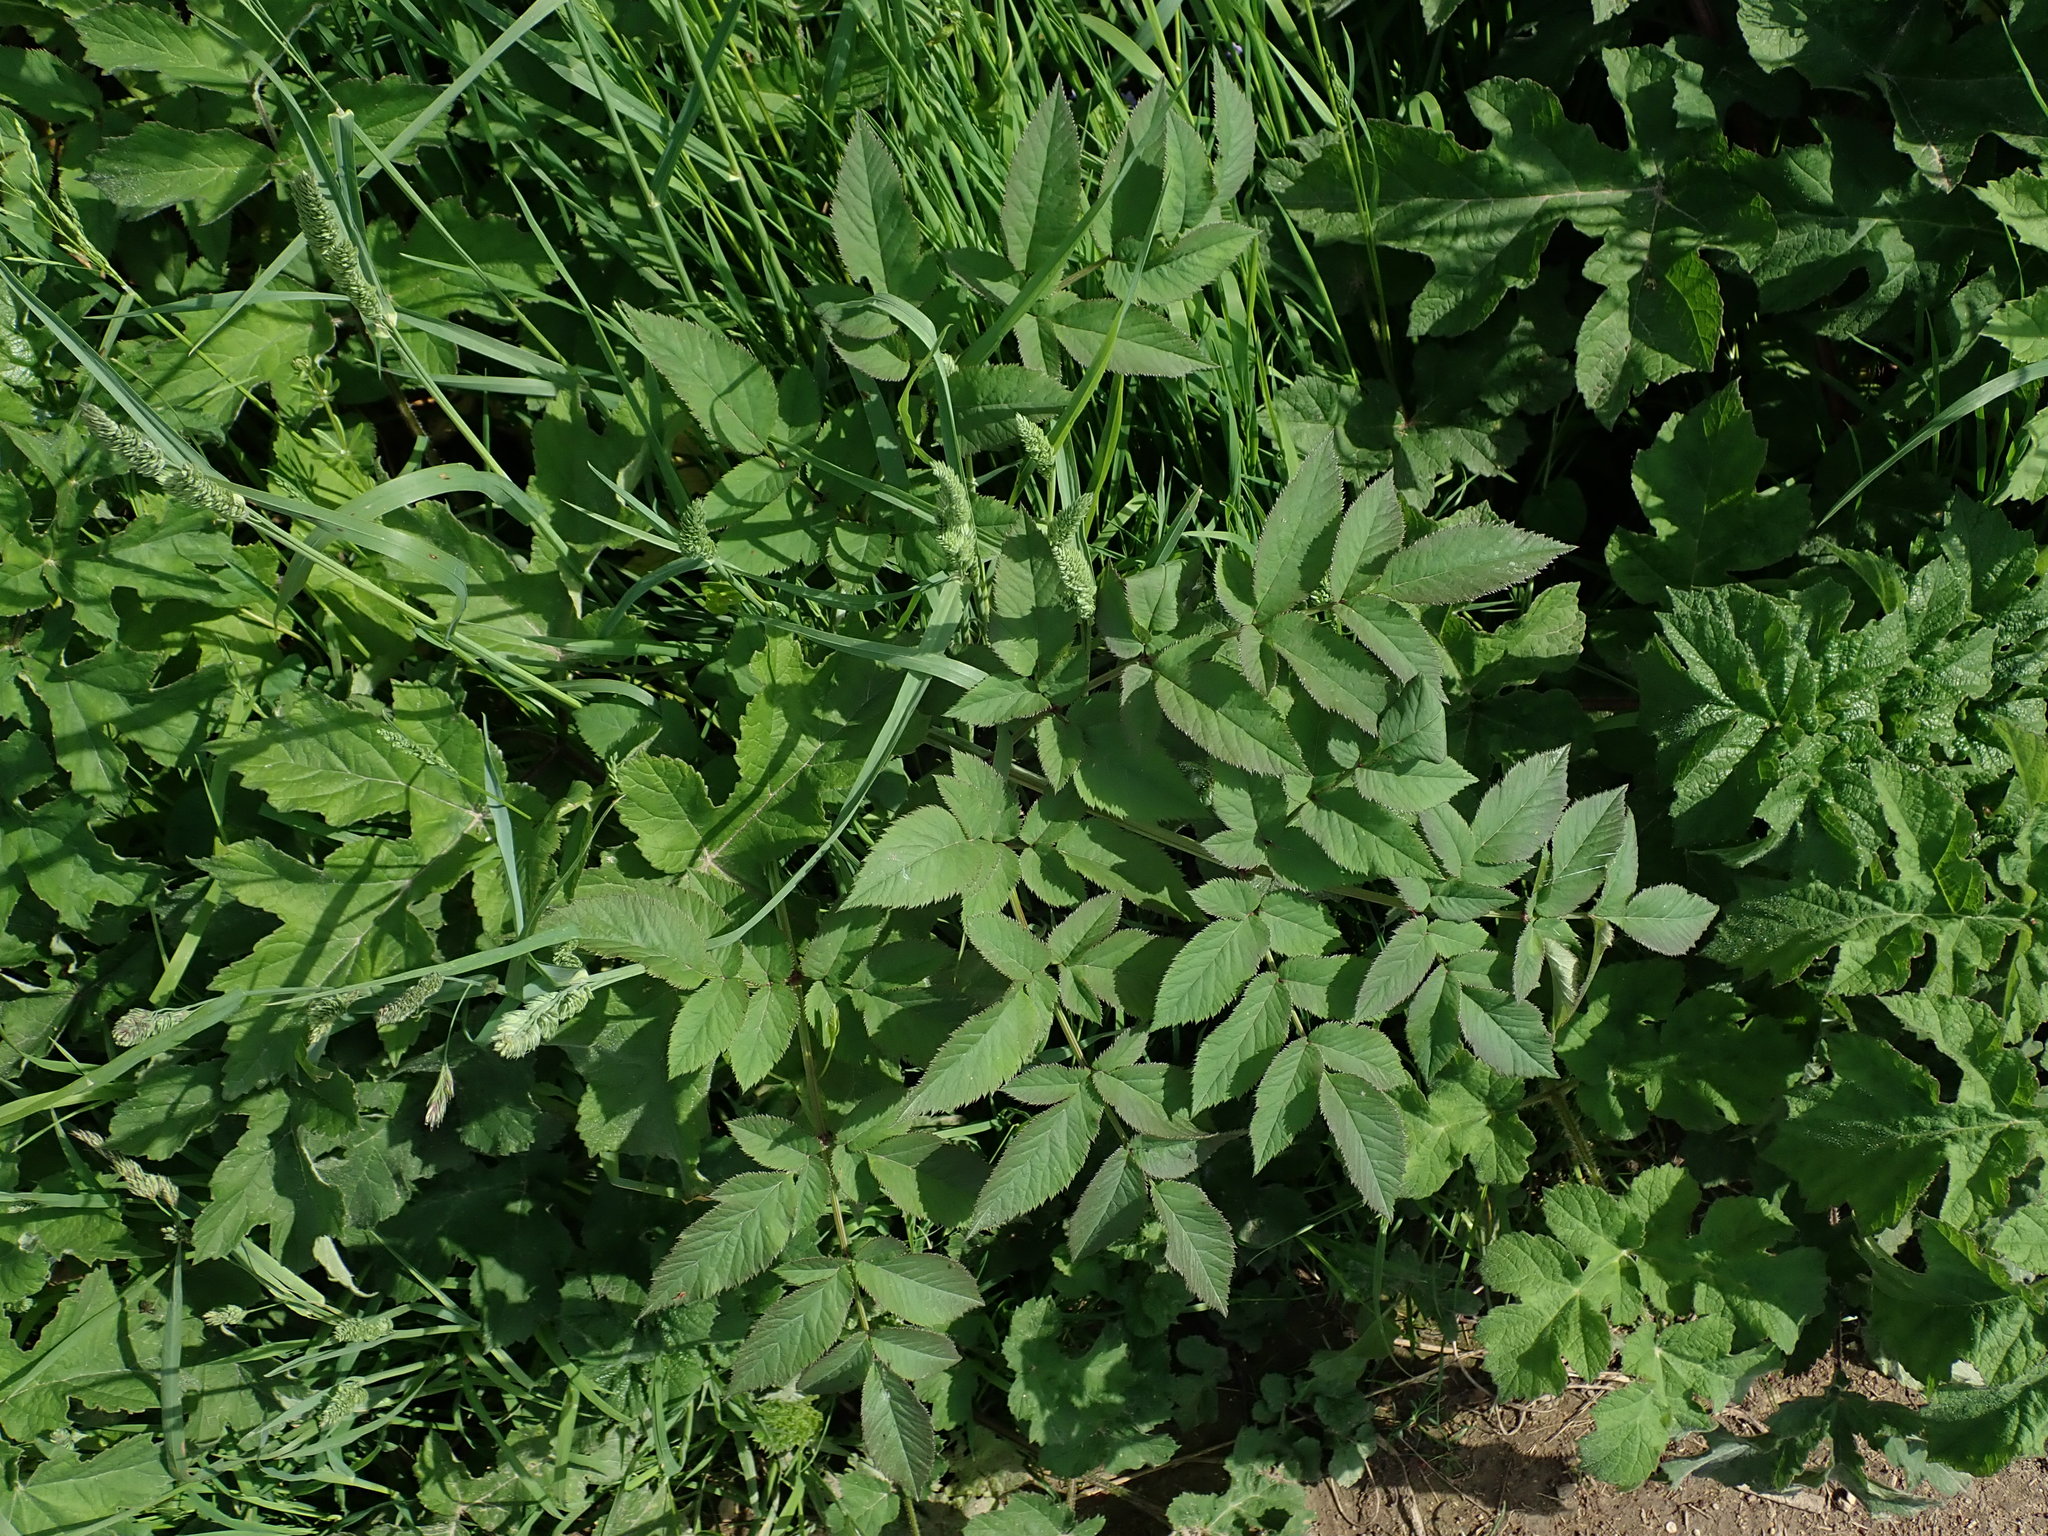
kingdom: Plantae
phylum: Tracheophyta
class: Magnoliopsida
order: Apiales
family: Apiaceae
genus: Angelica
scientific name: Angelica sylvestris
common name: Wild angelica
